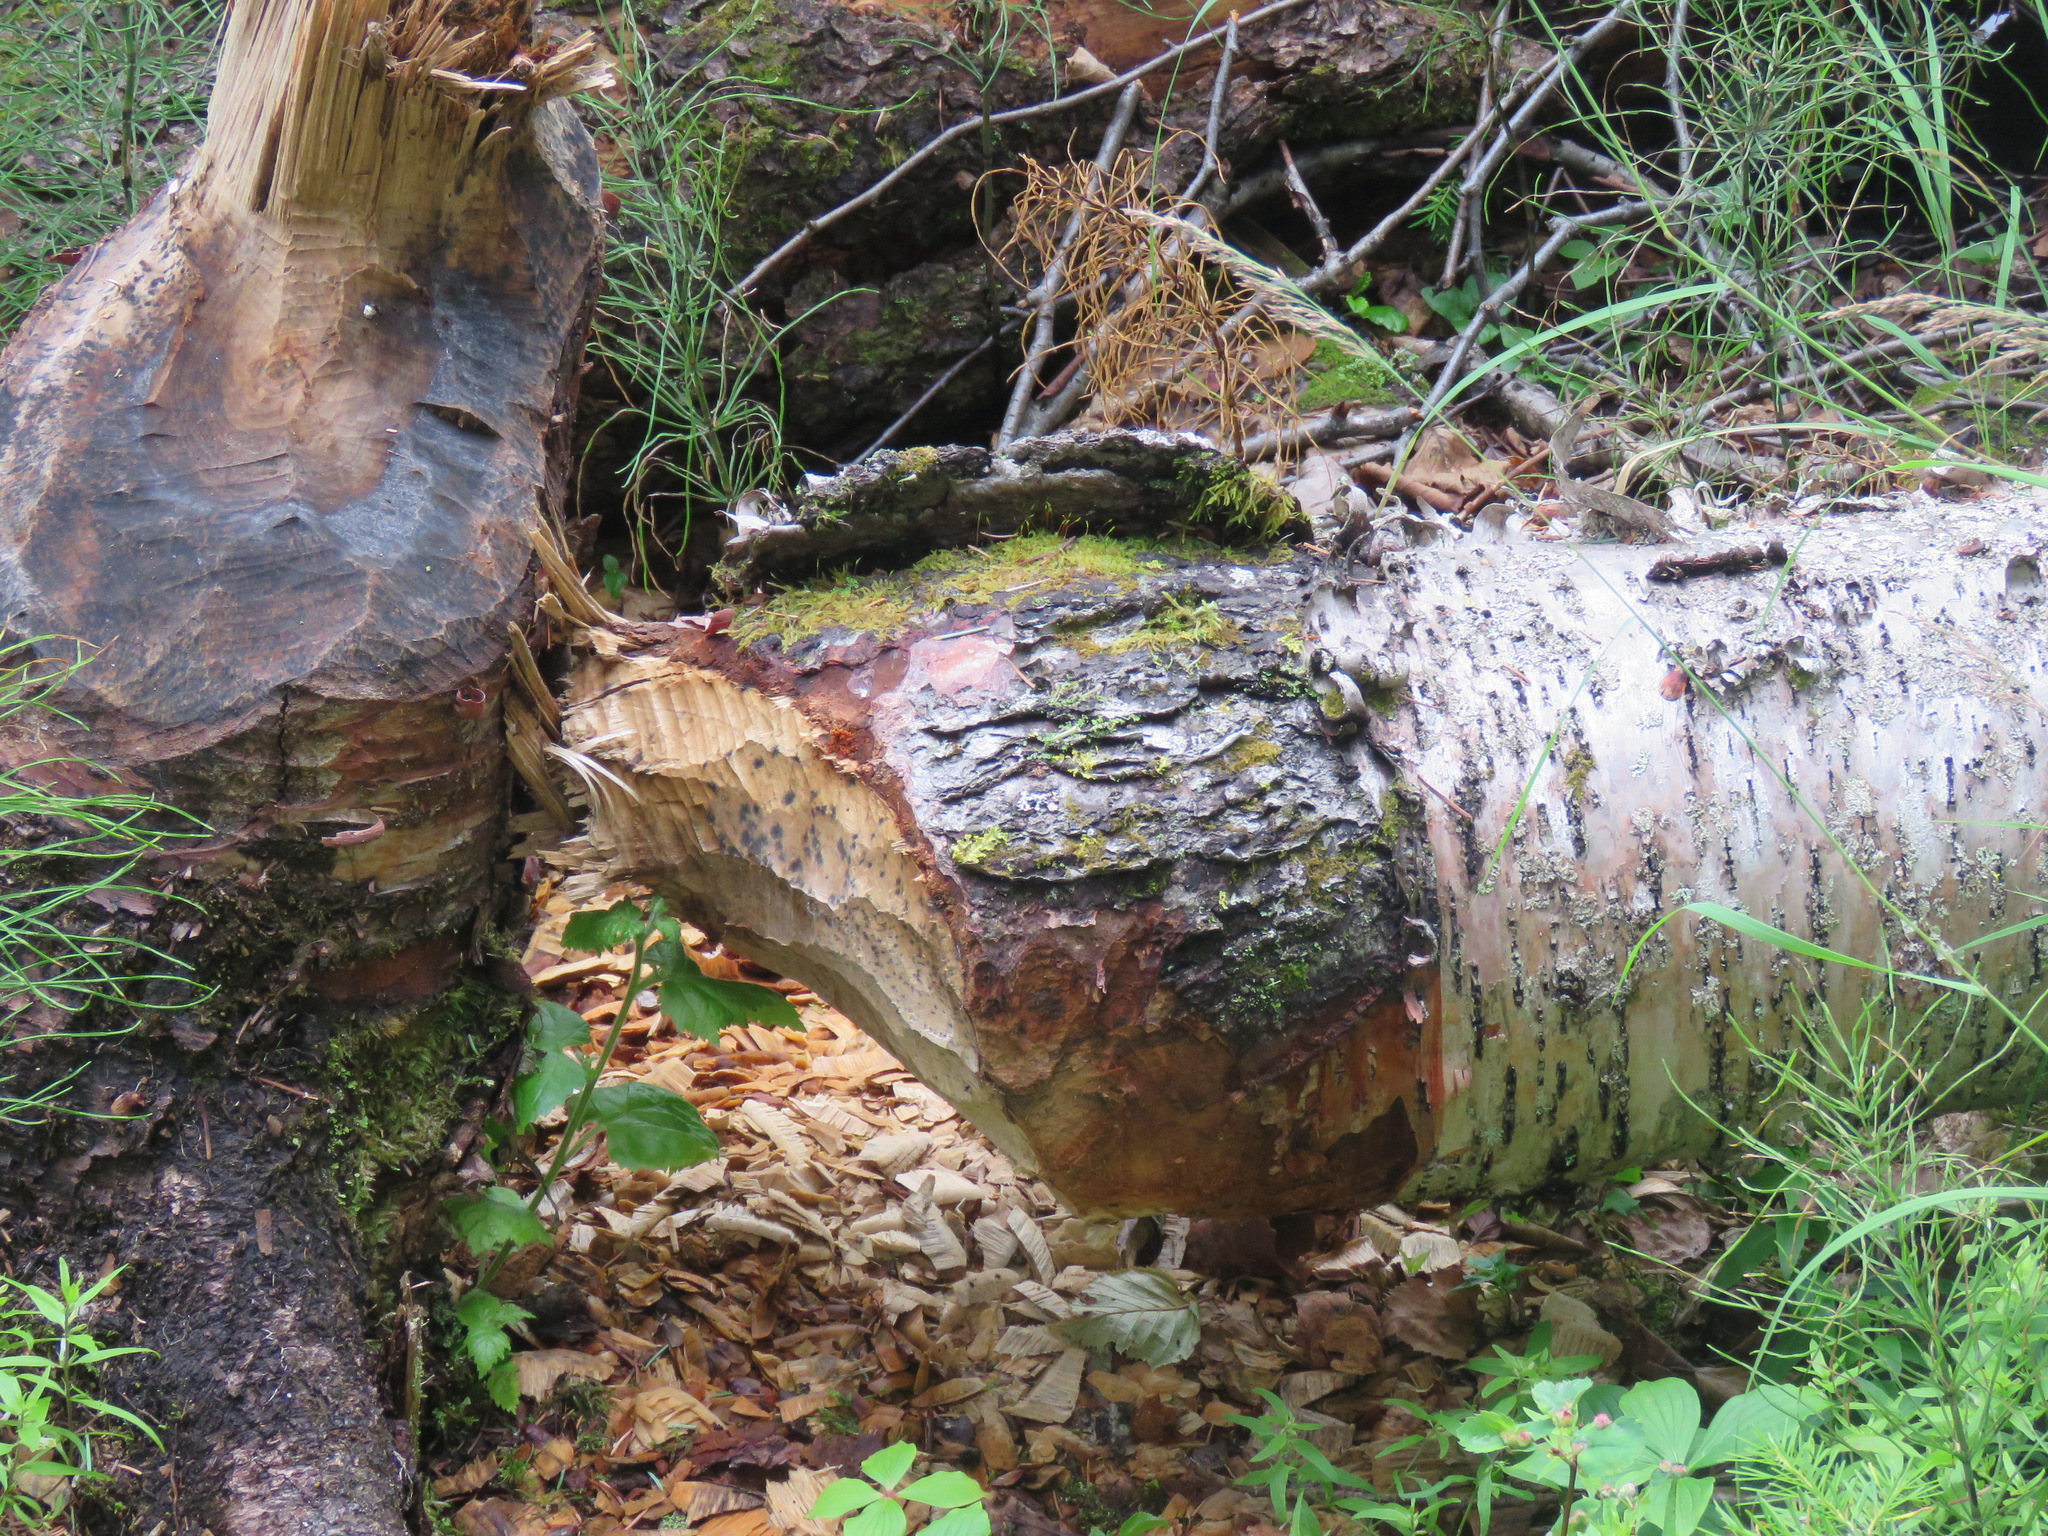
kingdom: Animalia
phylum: Chordata
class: Mammalia
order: Rodentia
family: Castoridae
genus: Castor
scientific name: Castor canadensis
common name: American beaver
